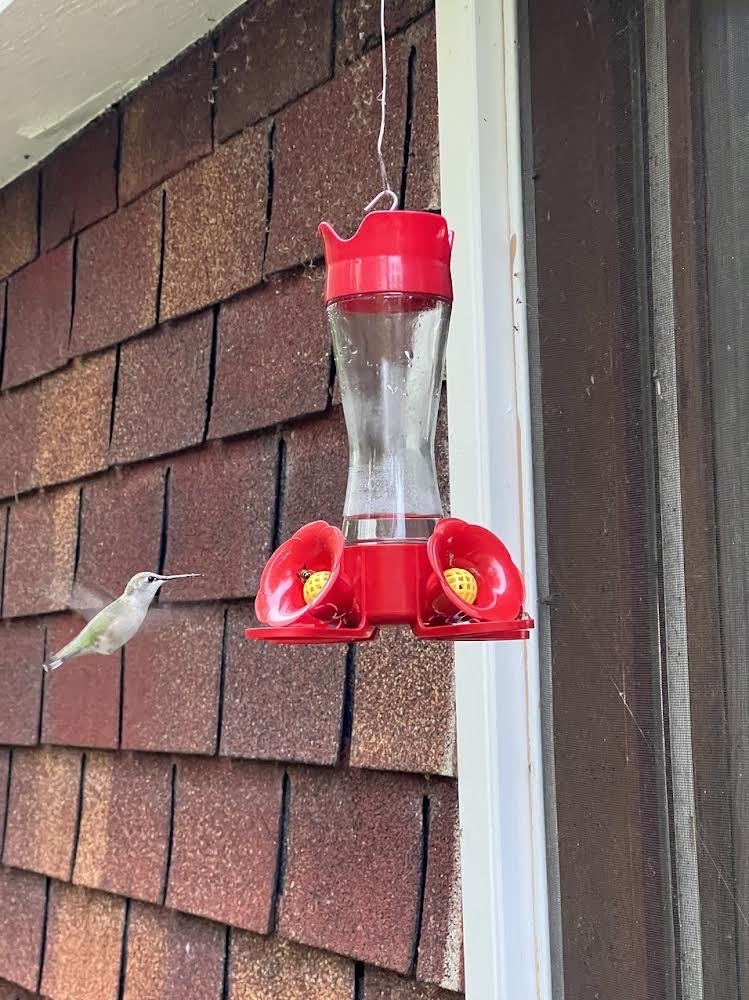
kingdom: Animalia
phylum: Chordata
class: Aves
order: Apodiformes
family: Trochilidae
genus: Archilochus
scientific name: Archilochus colubris
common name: Ruby-throated hummingbird
